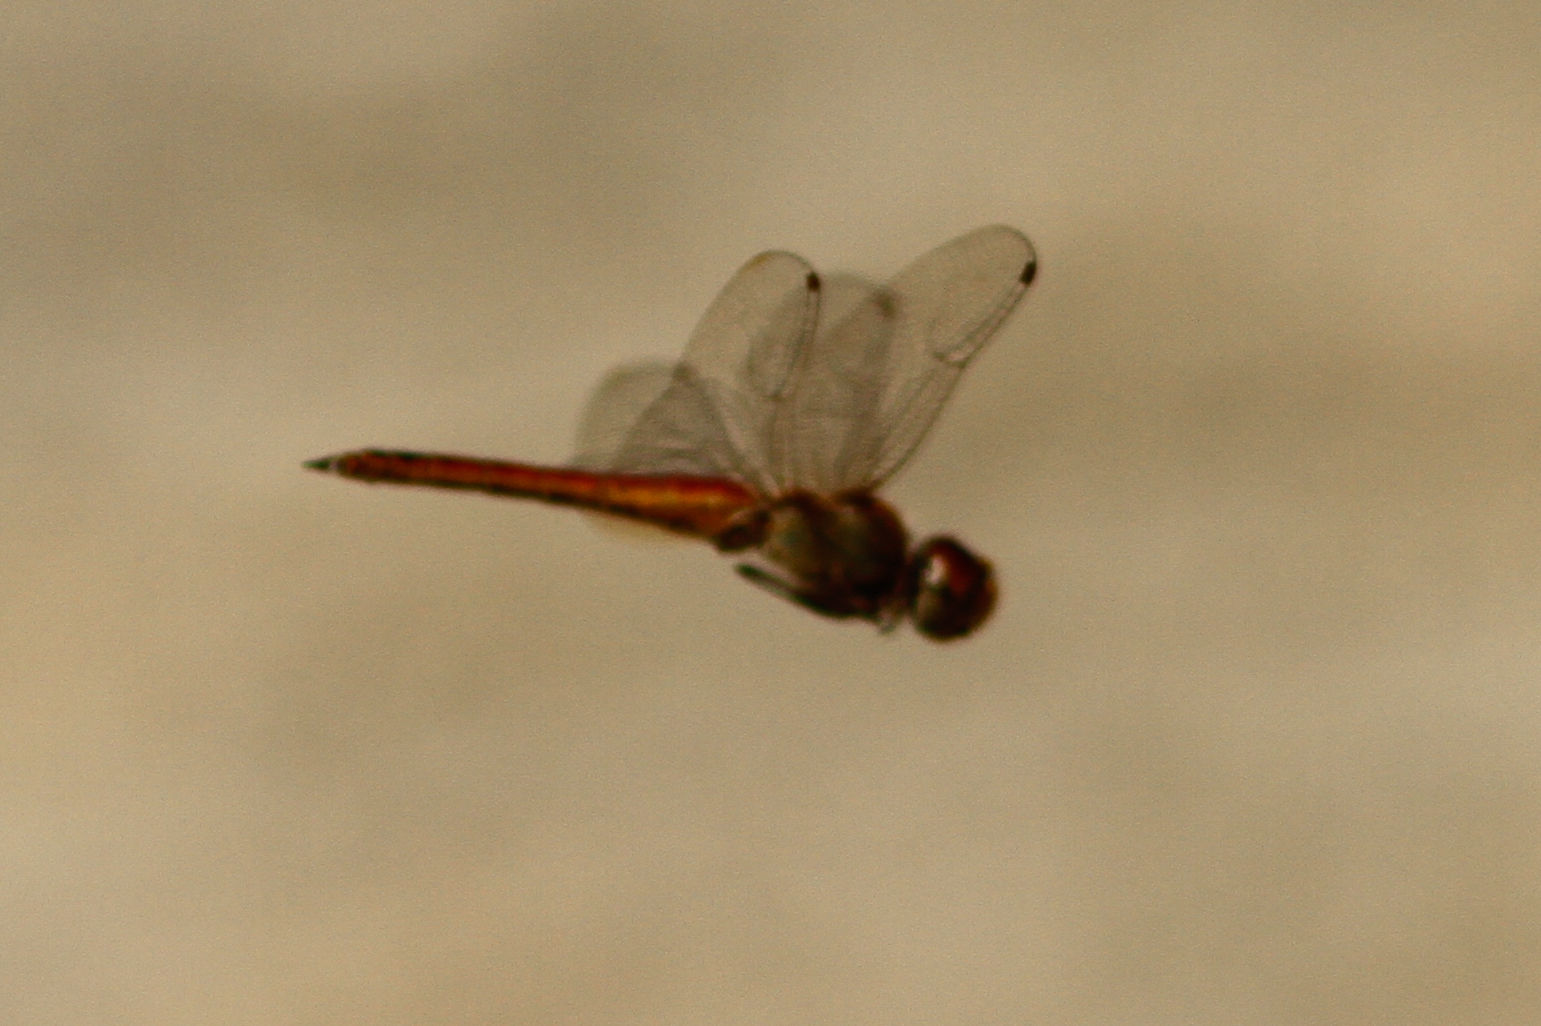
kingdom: Animalia
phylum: Arthropoda
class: Insecta
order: Odonata
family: Libellulidae
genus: Pantala
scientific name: Pantala flavescens
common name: Wandering glider
